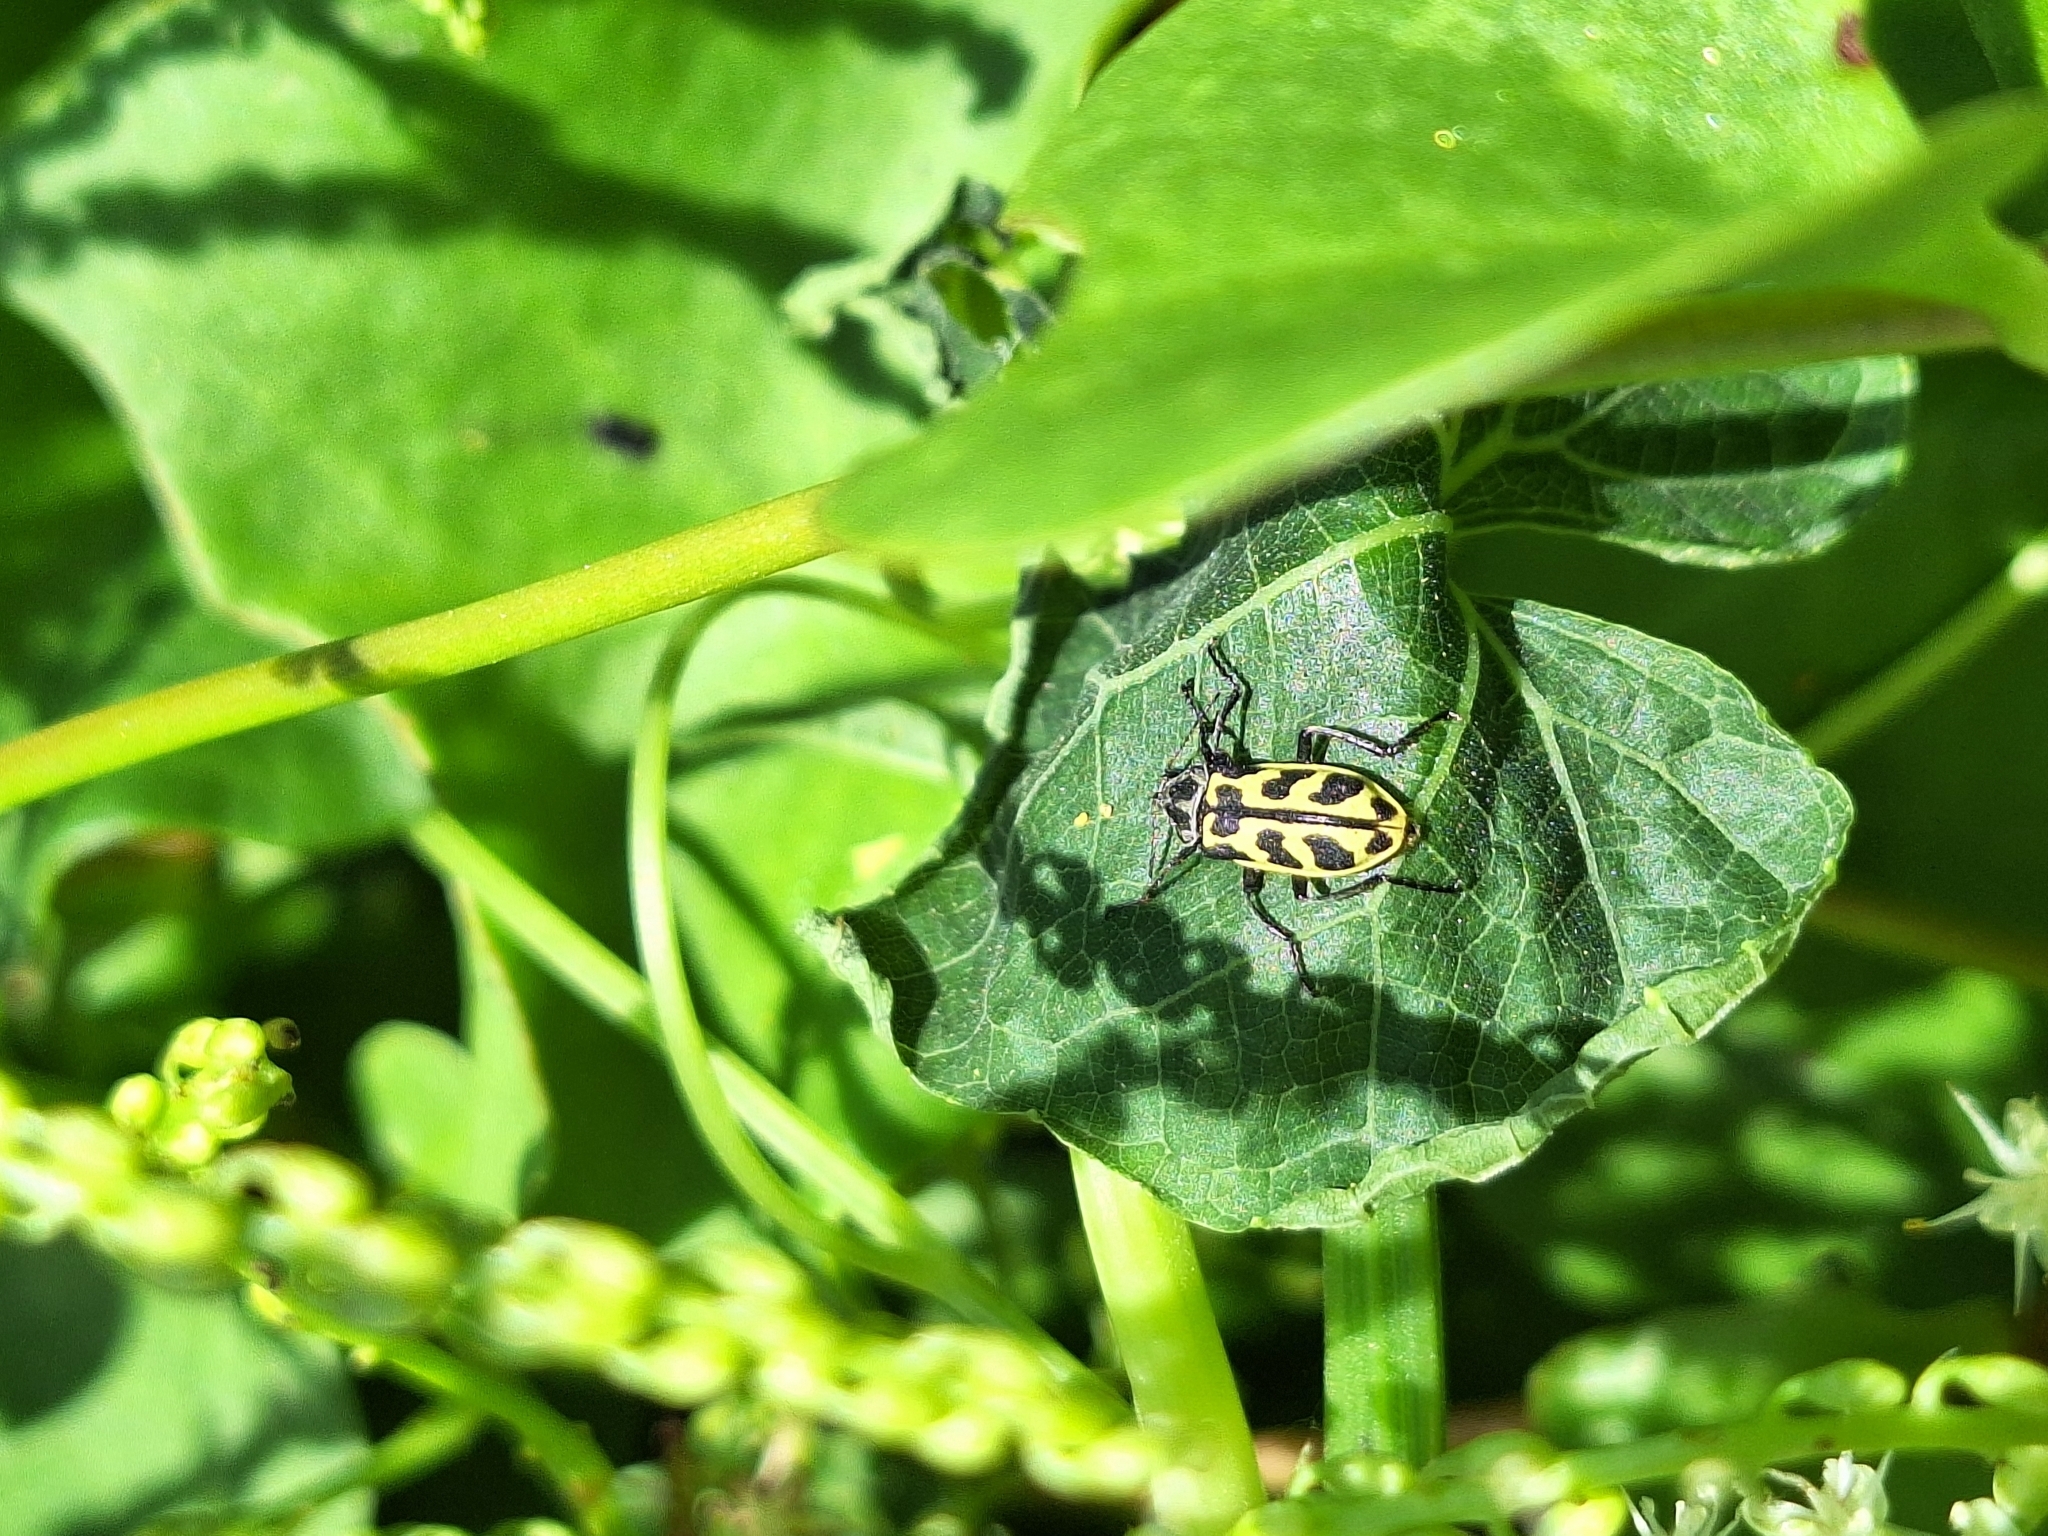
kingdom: Animalia
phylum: Arthropoda
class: Insecta
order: Coleoptera
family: Melyridae
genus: Astylus
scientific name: Astylus atromaculatus
